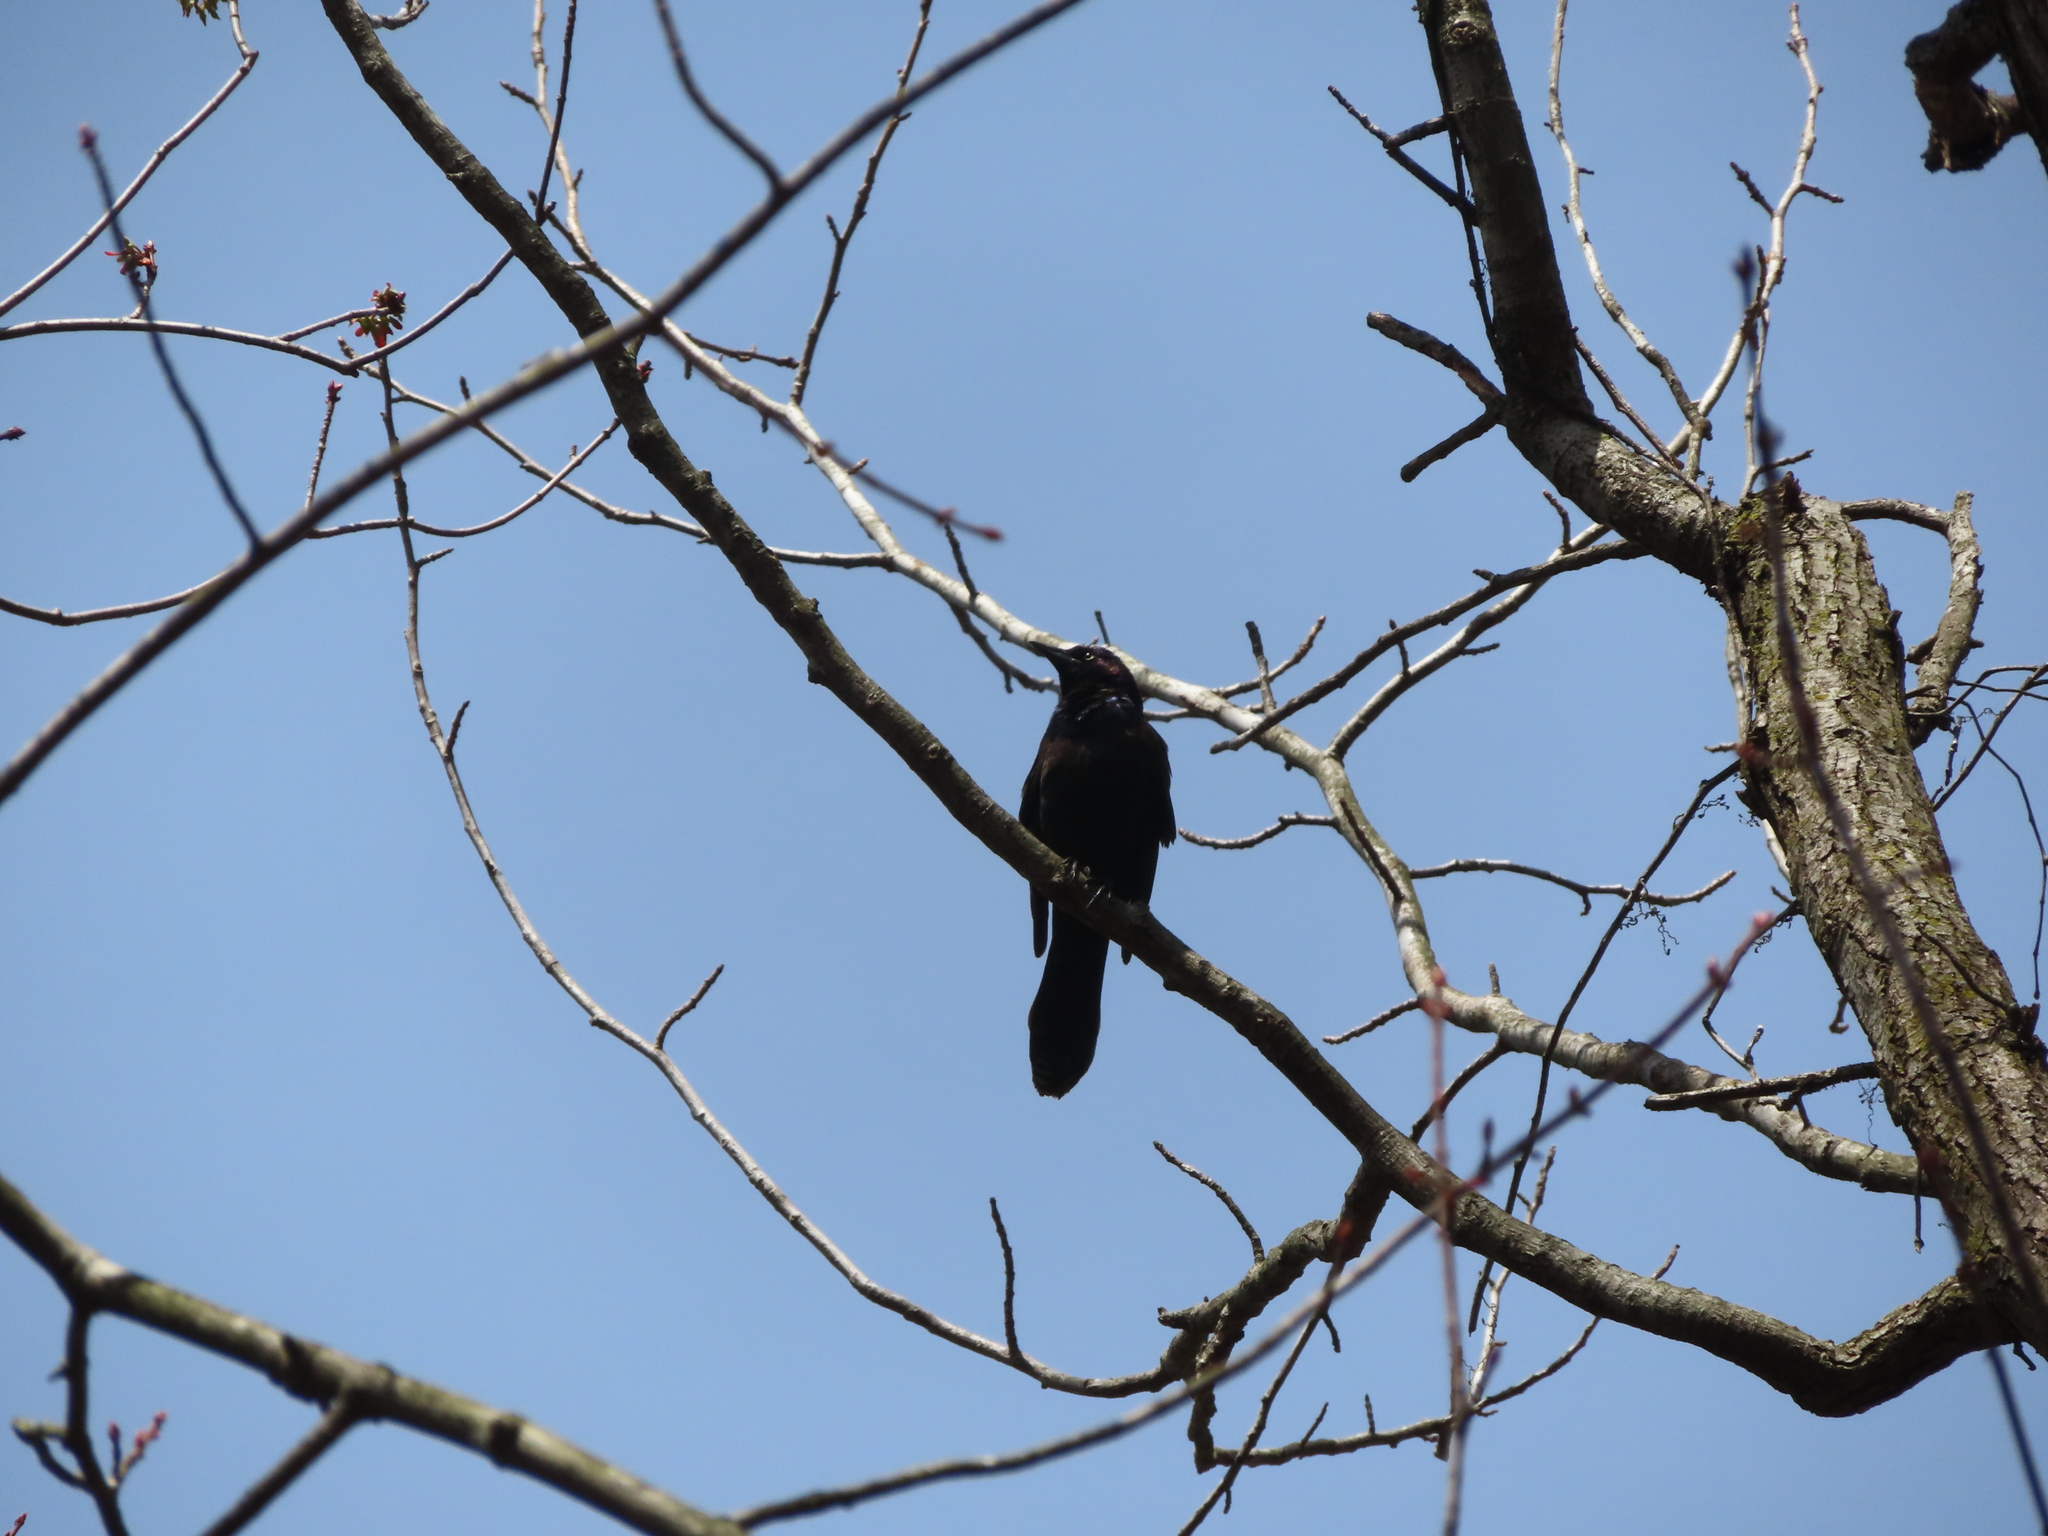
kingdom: Animalia
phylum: Chordata
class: Aves
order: Passeriformes
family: Icteridae
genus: Quiscalus
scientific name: Quiscalus quiscula
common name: Common grackle
